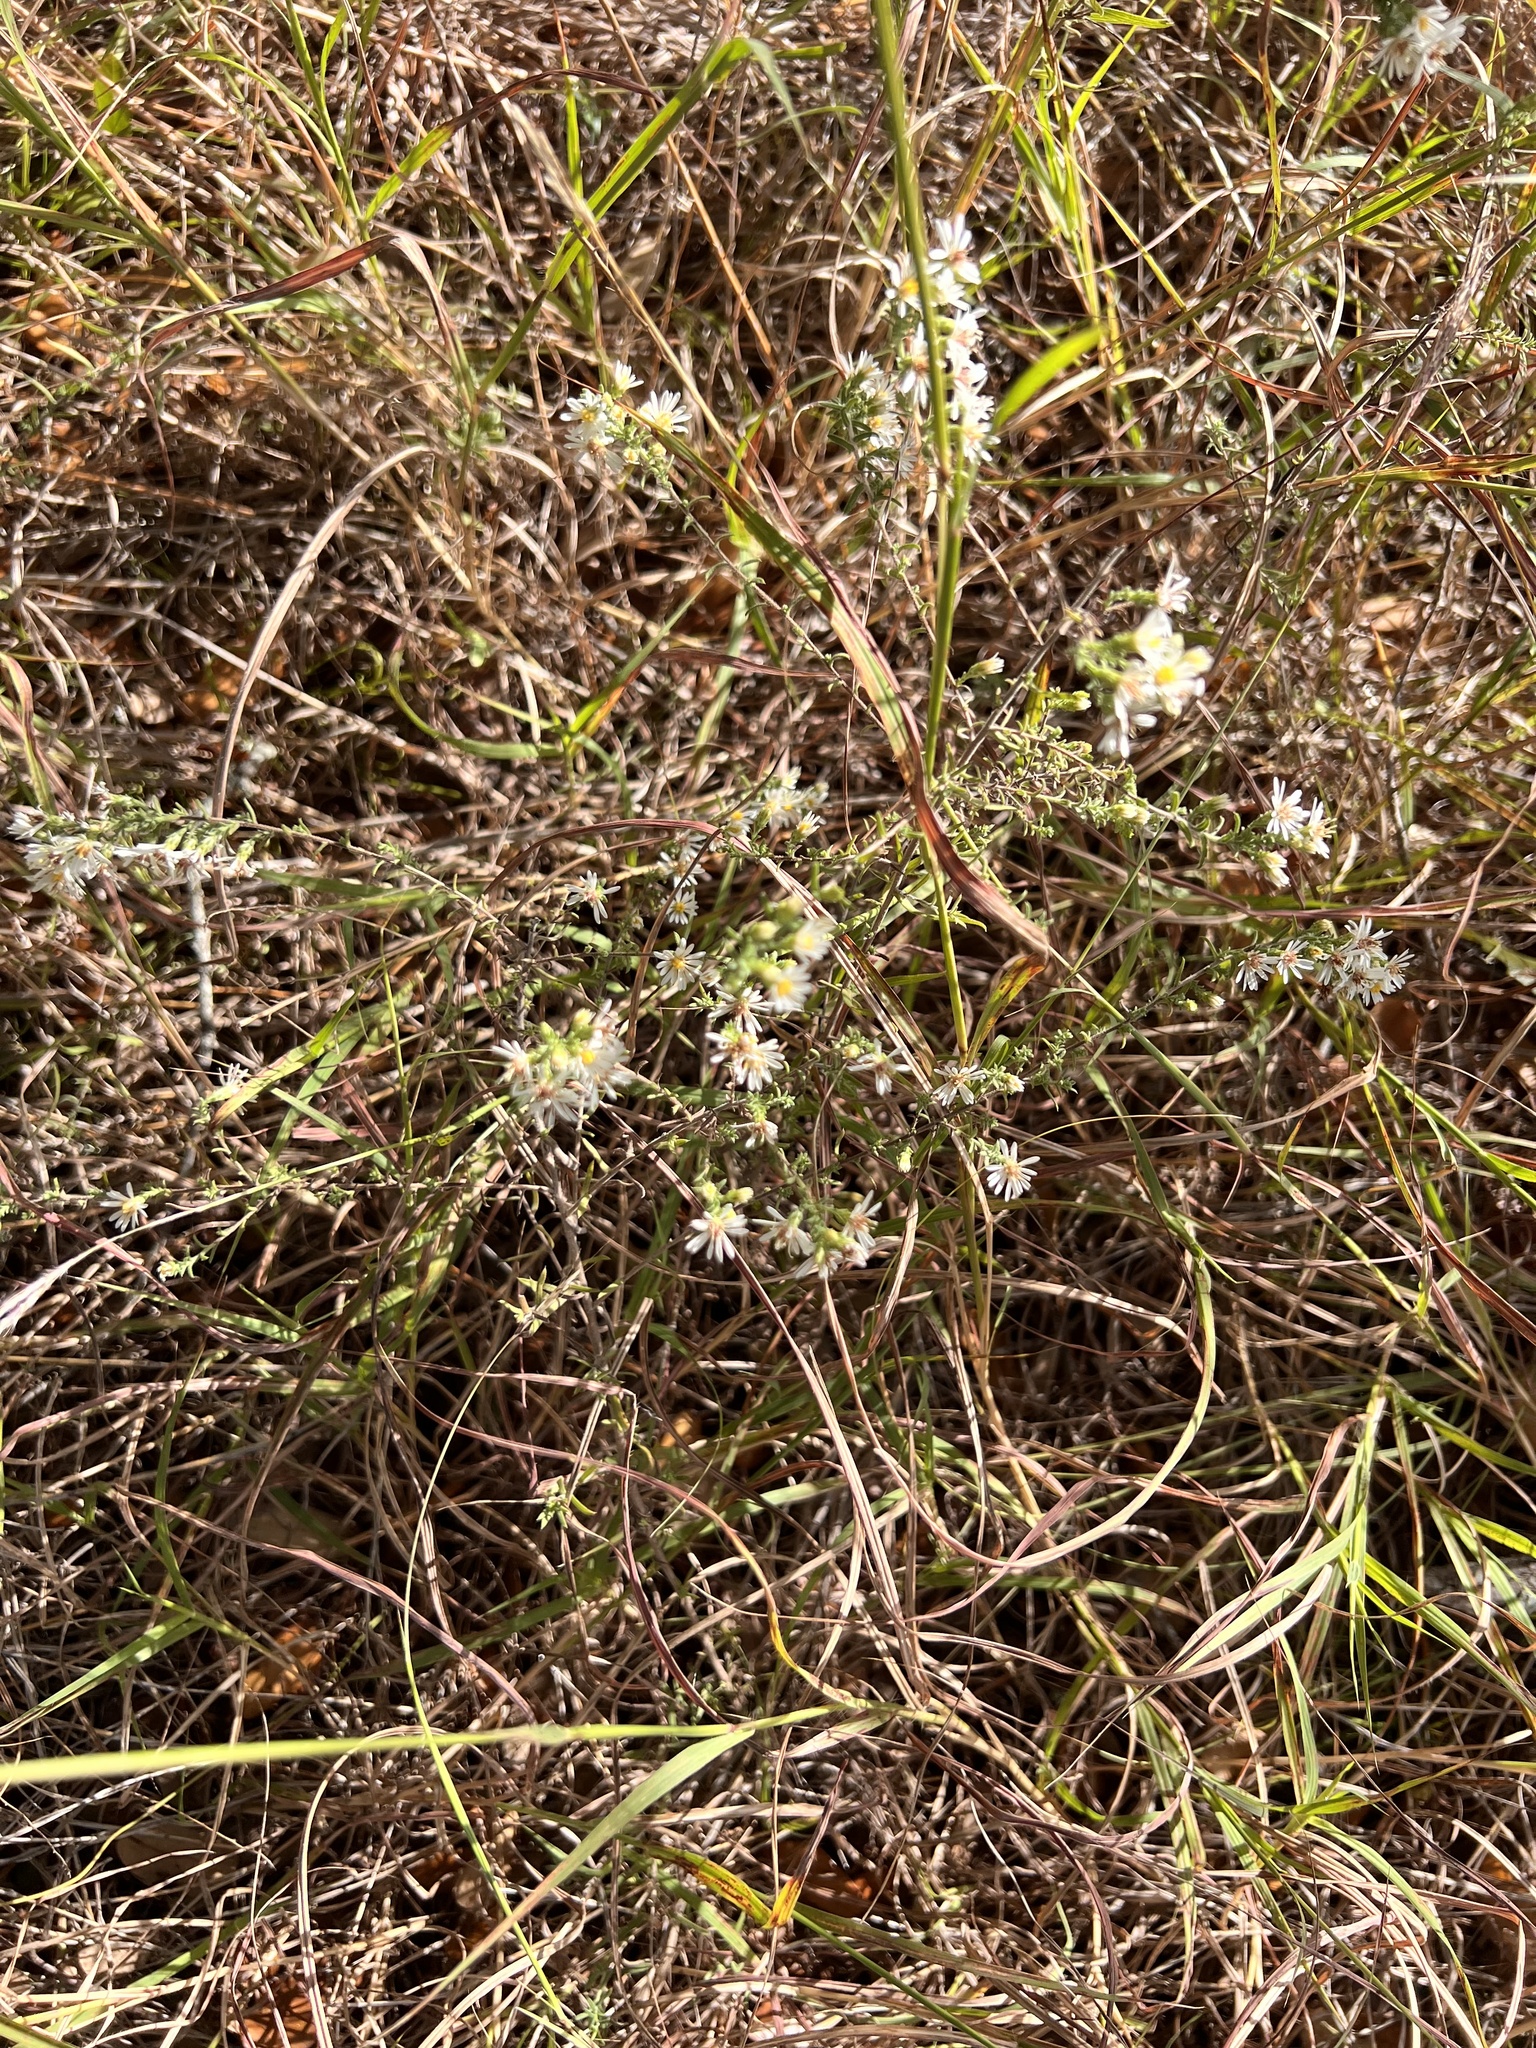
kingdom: Plantae
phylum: Tracheophyta
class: Magnoliopsida
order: Asterales
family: Asteraceae
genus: Symphyotrichum
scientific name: Symphyotrichum ericoides
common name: Heath aster
